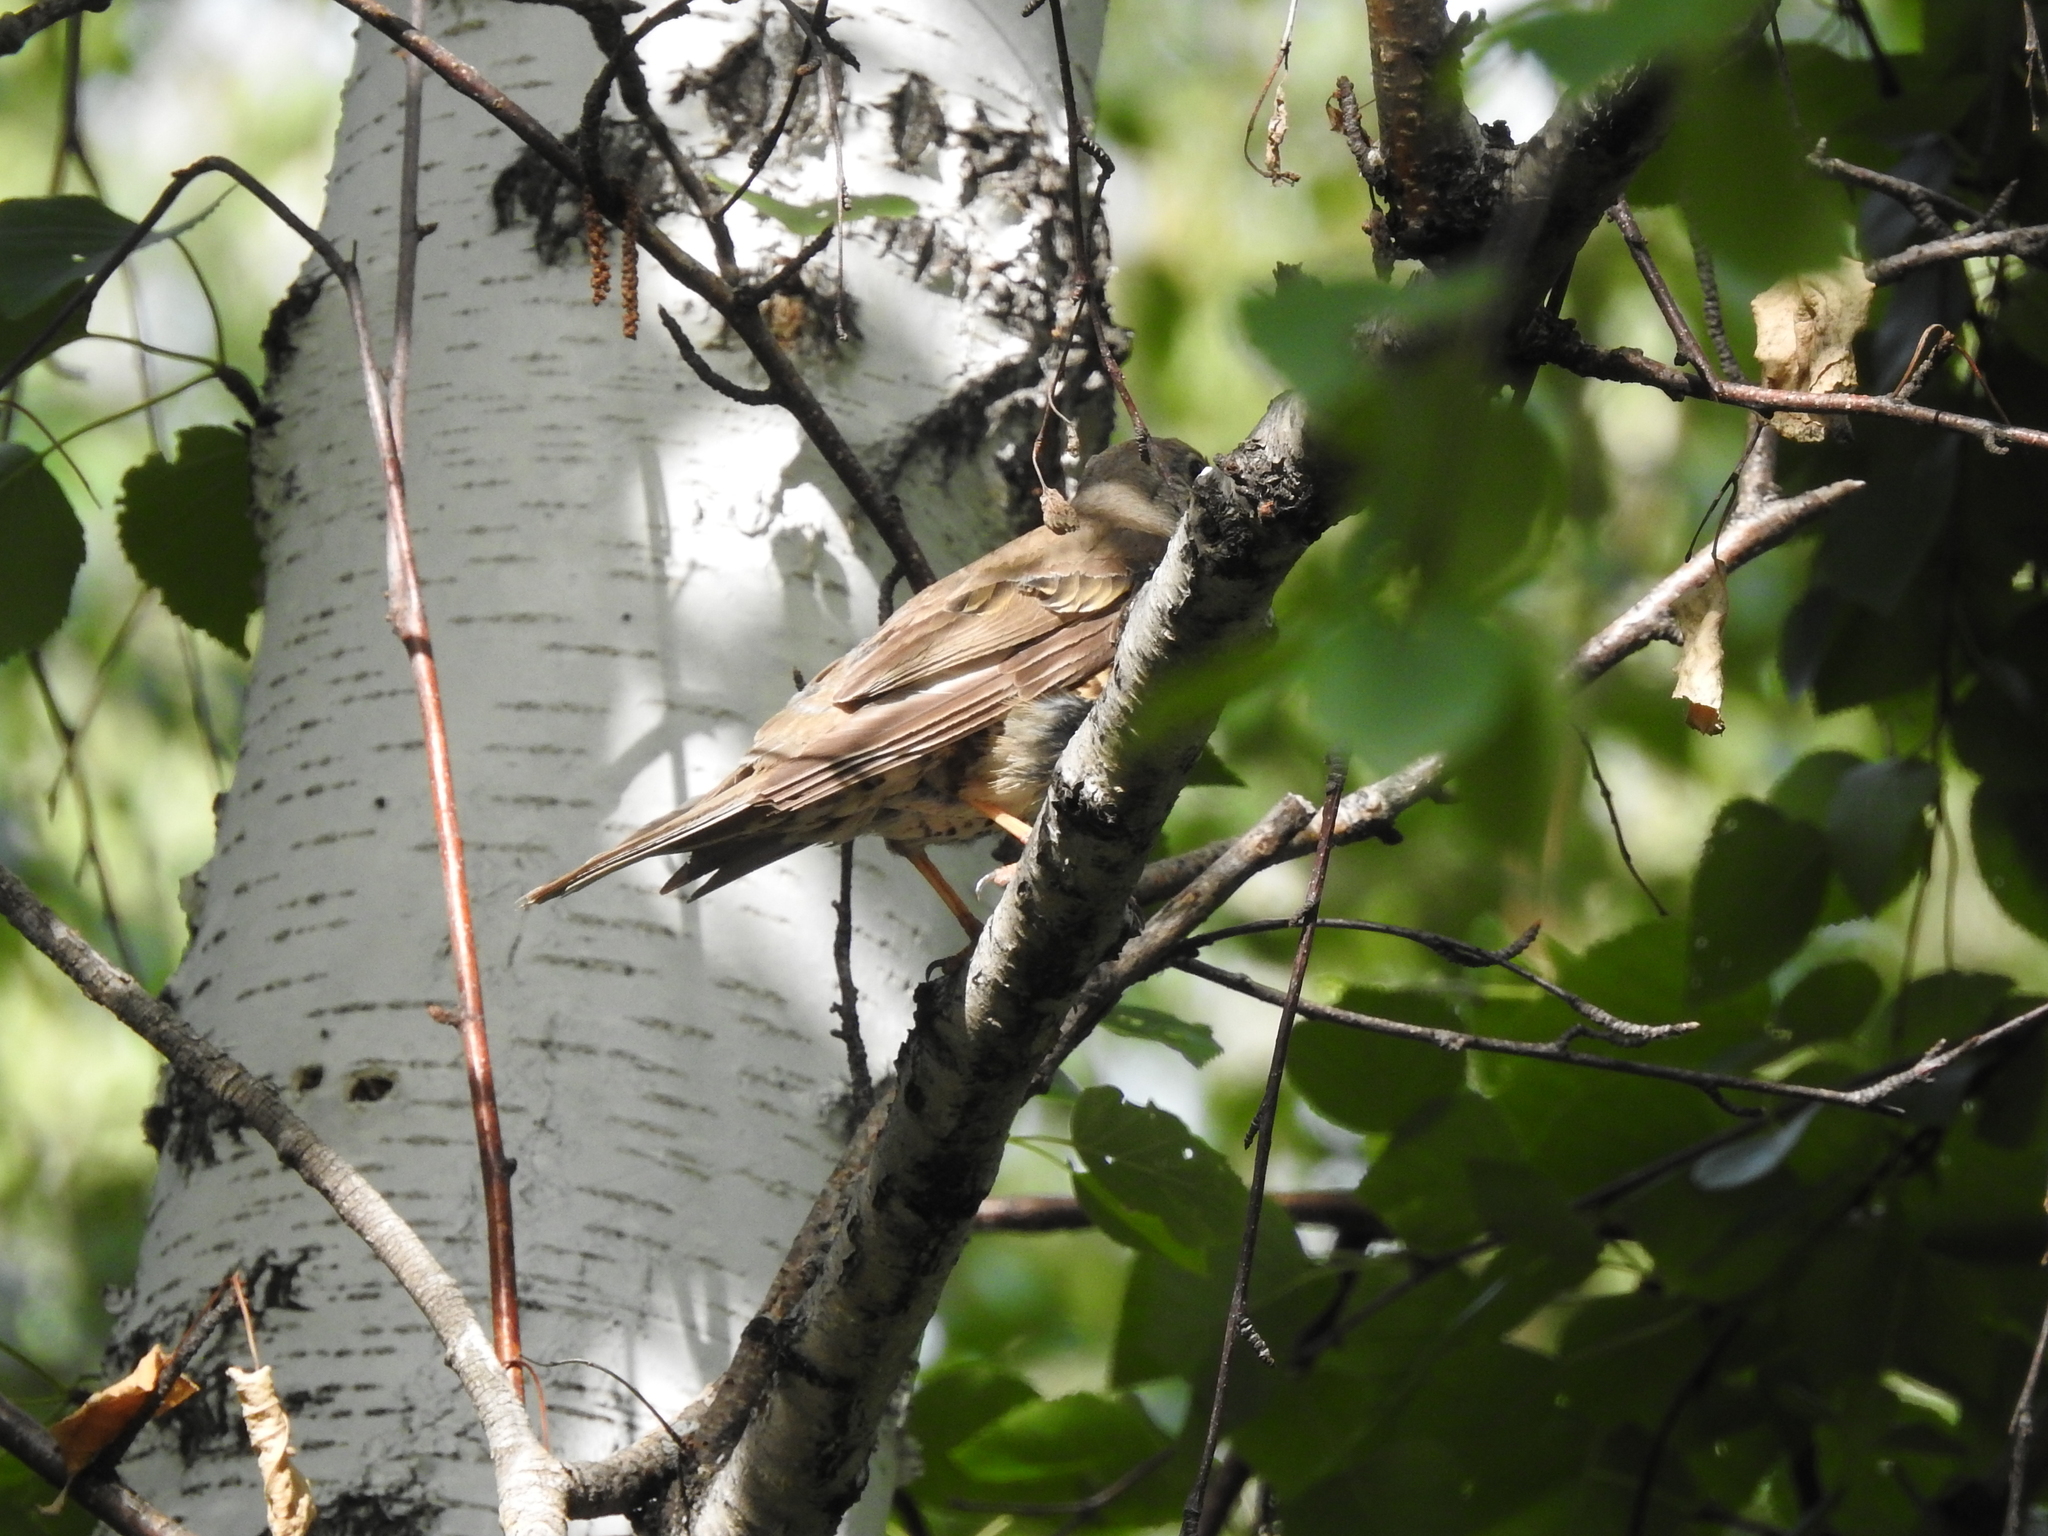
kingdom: Animalia
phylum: Chordata
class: Aves
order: Passeriformes
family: Turdidae
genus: Turdus
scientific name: Turdus pilaris
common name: Fieldfare
